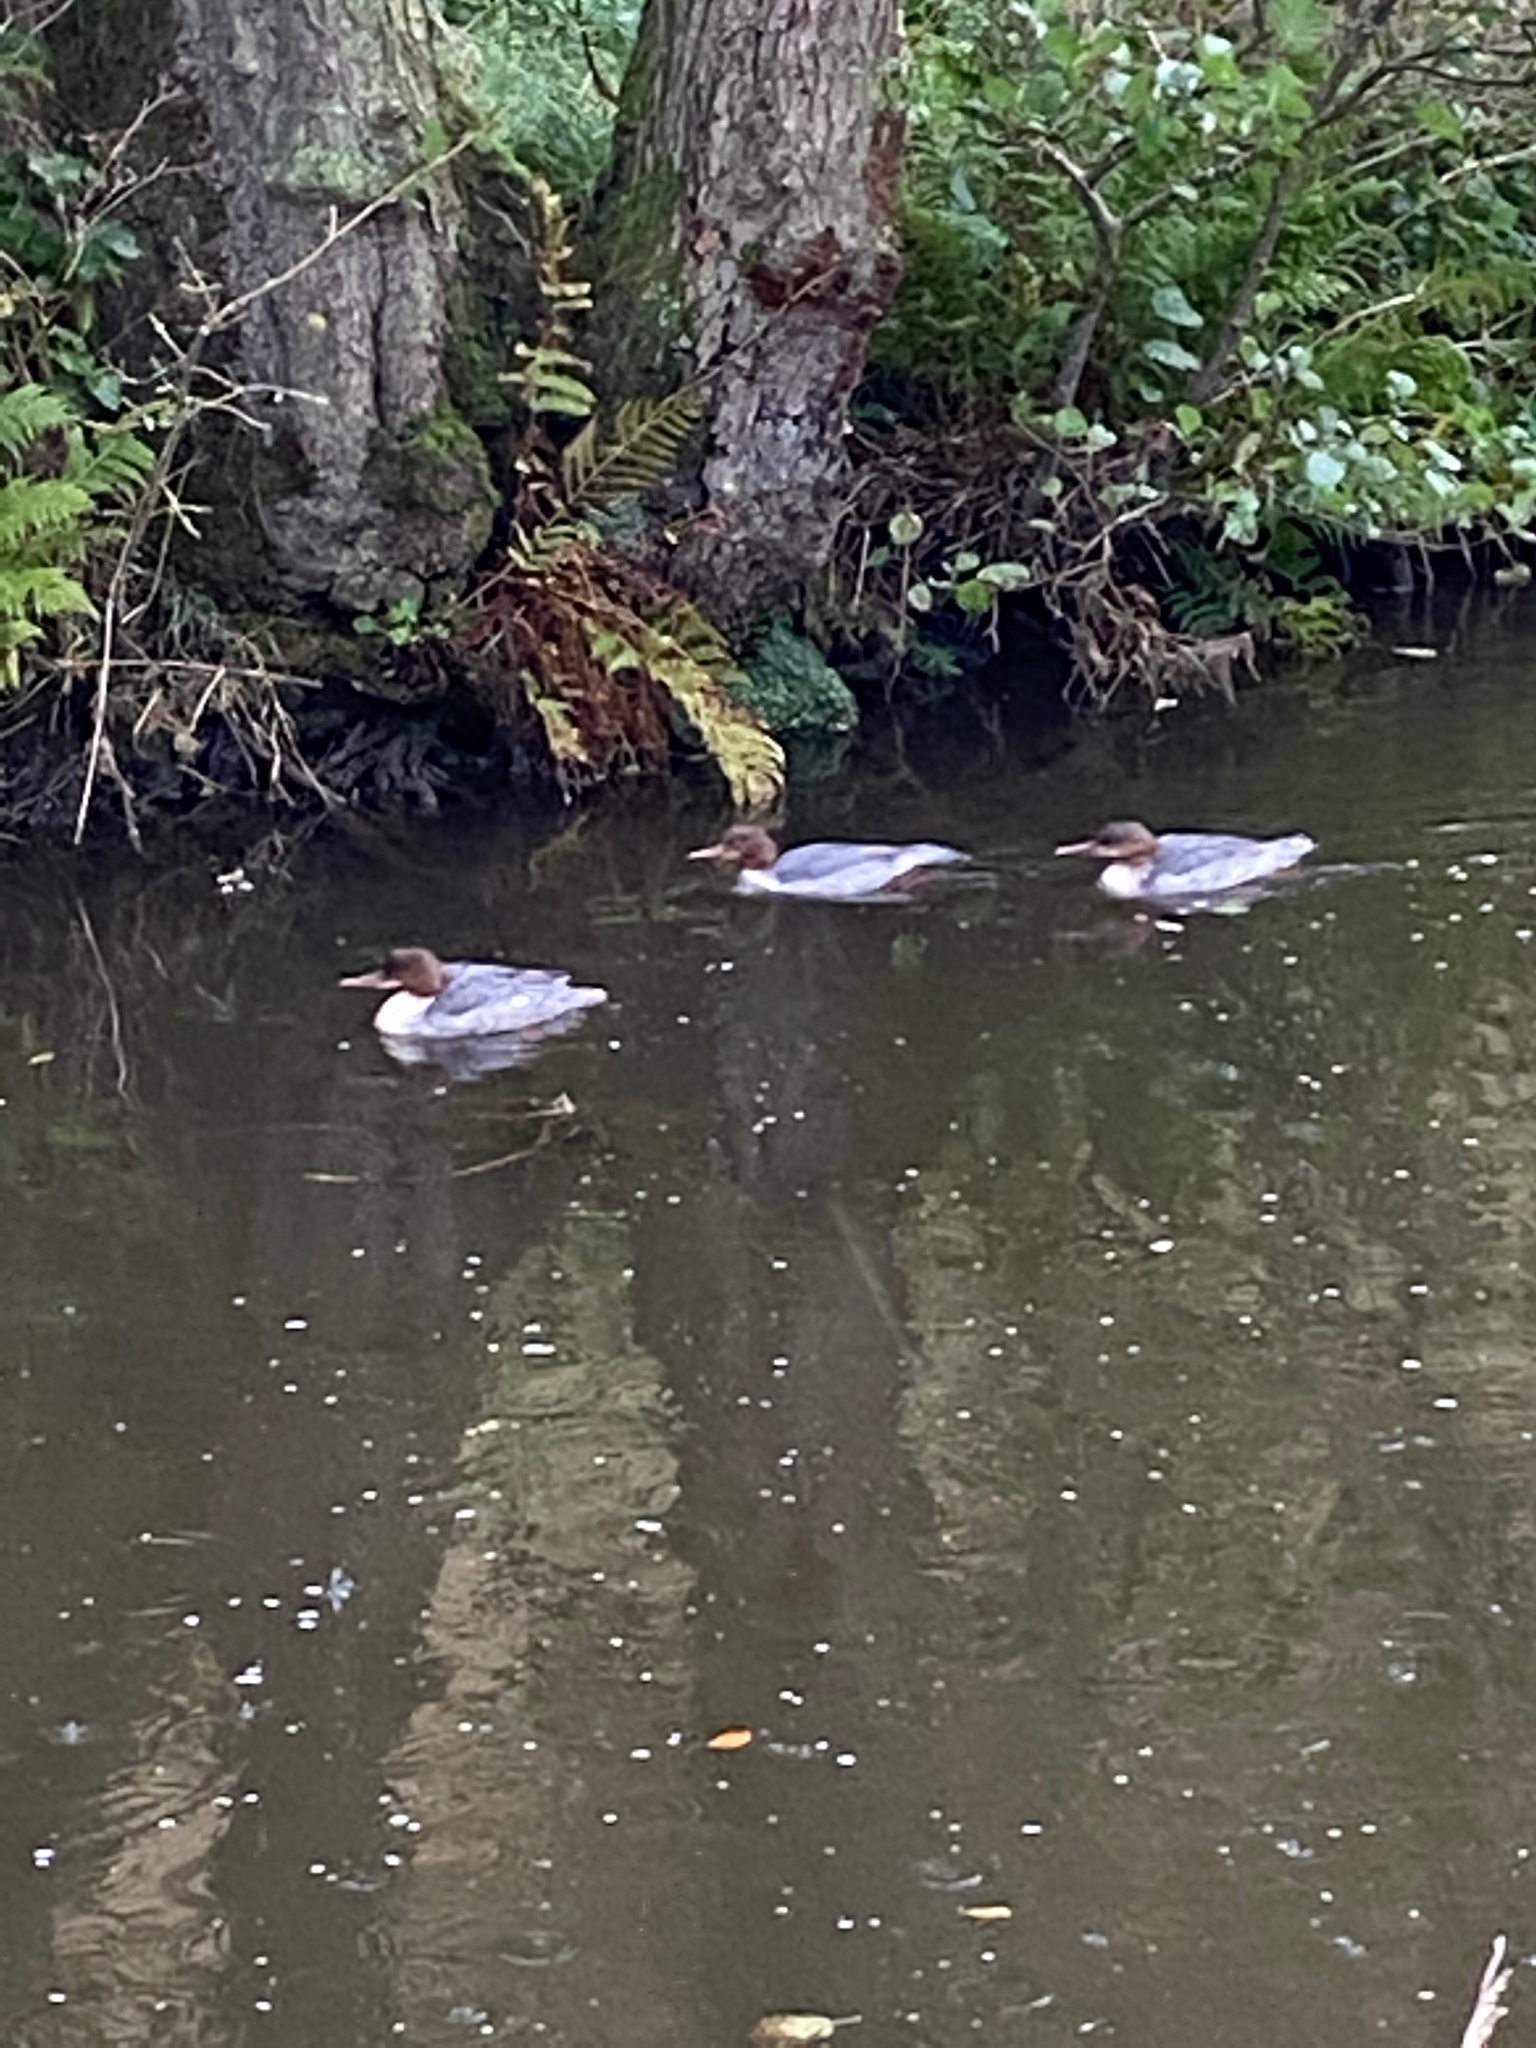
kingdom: Animalia
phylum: Chordata
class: Aves
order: Anseriformes
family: Anatidae
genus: Mergus
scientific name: Mergus merganser
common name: Common merganser
